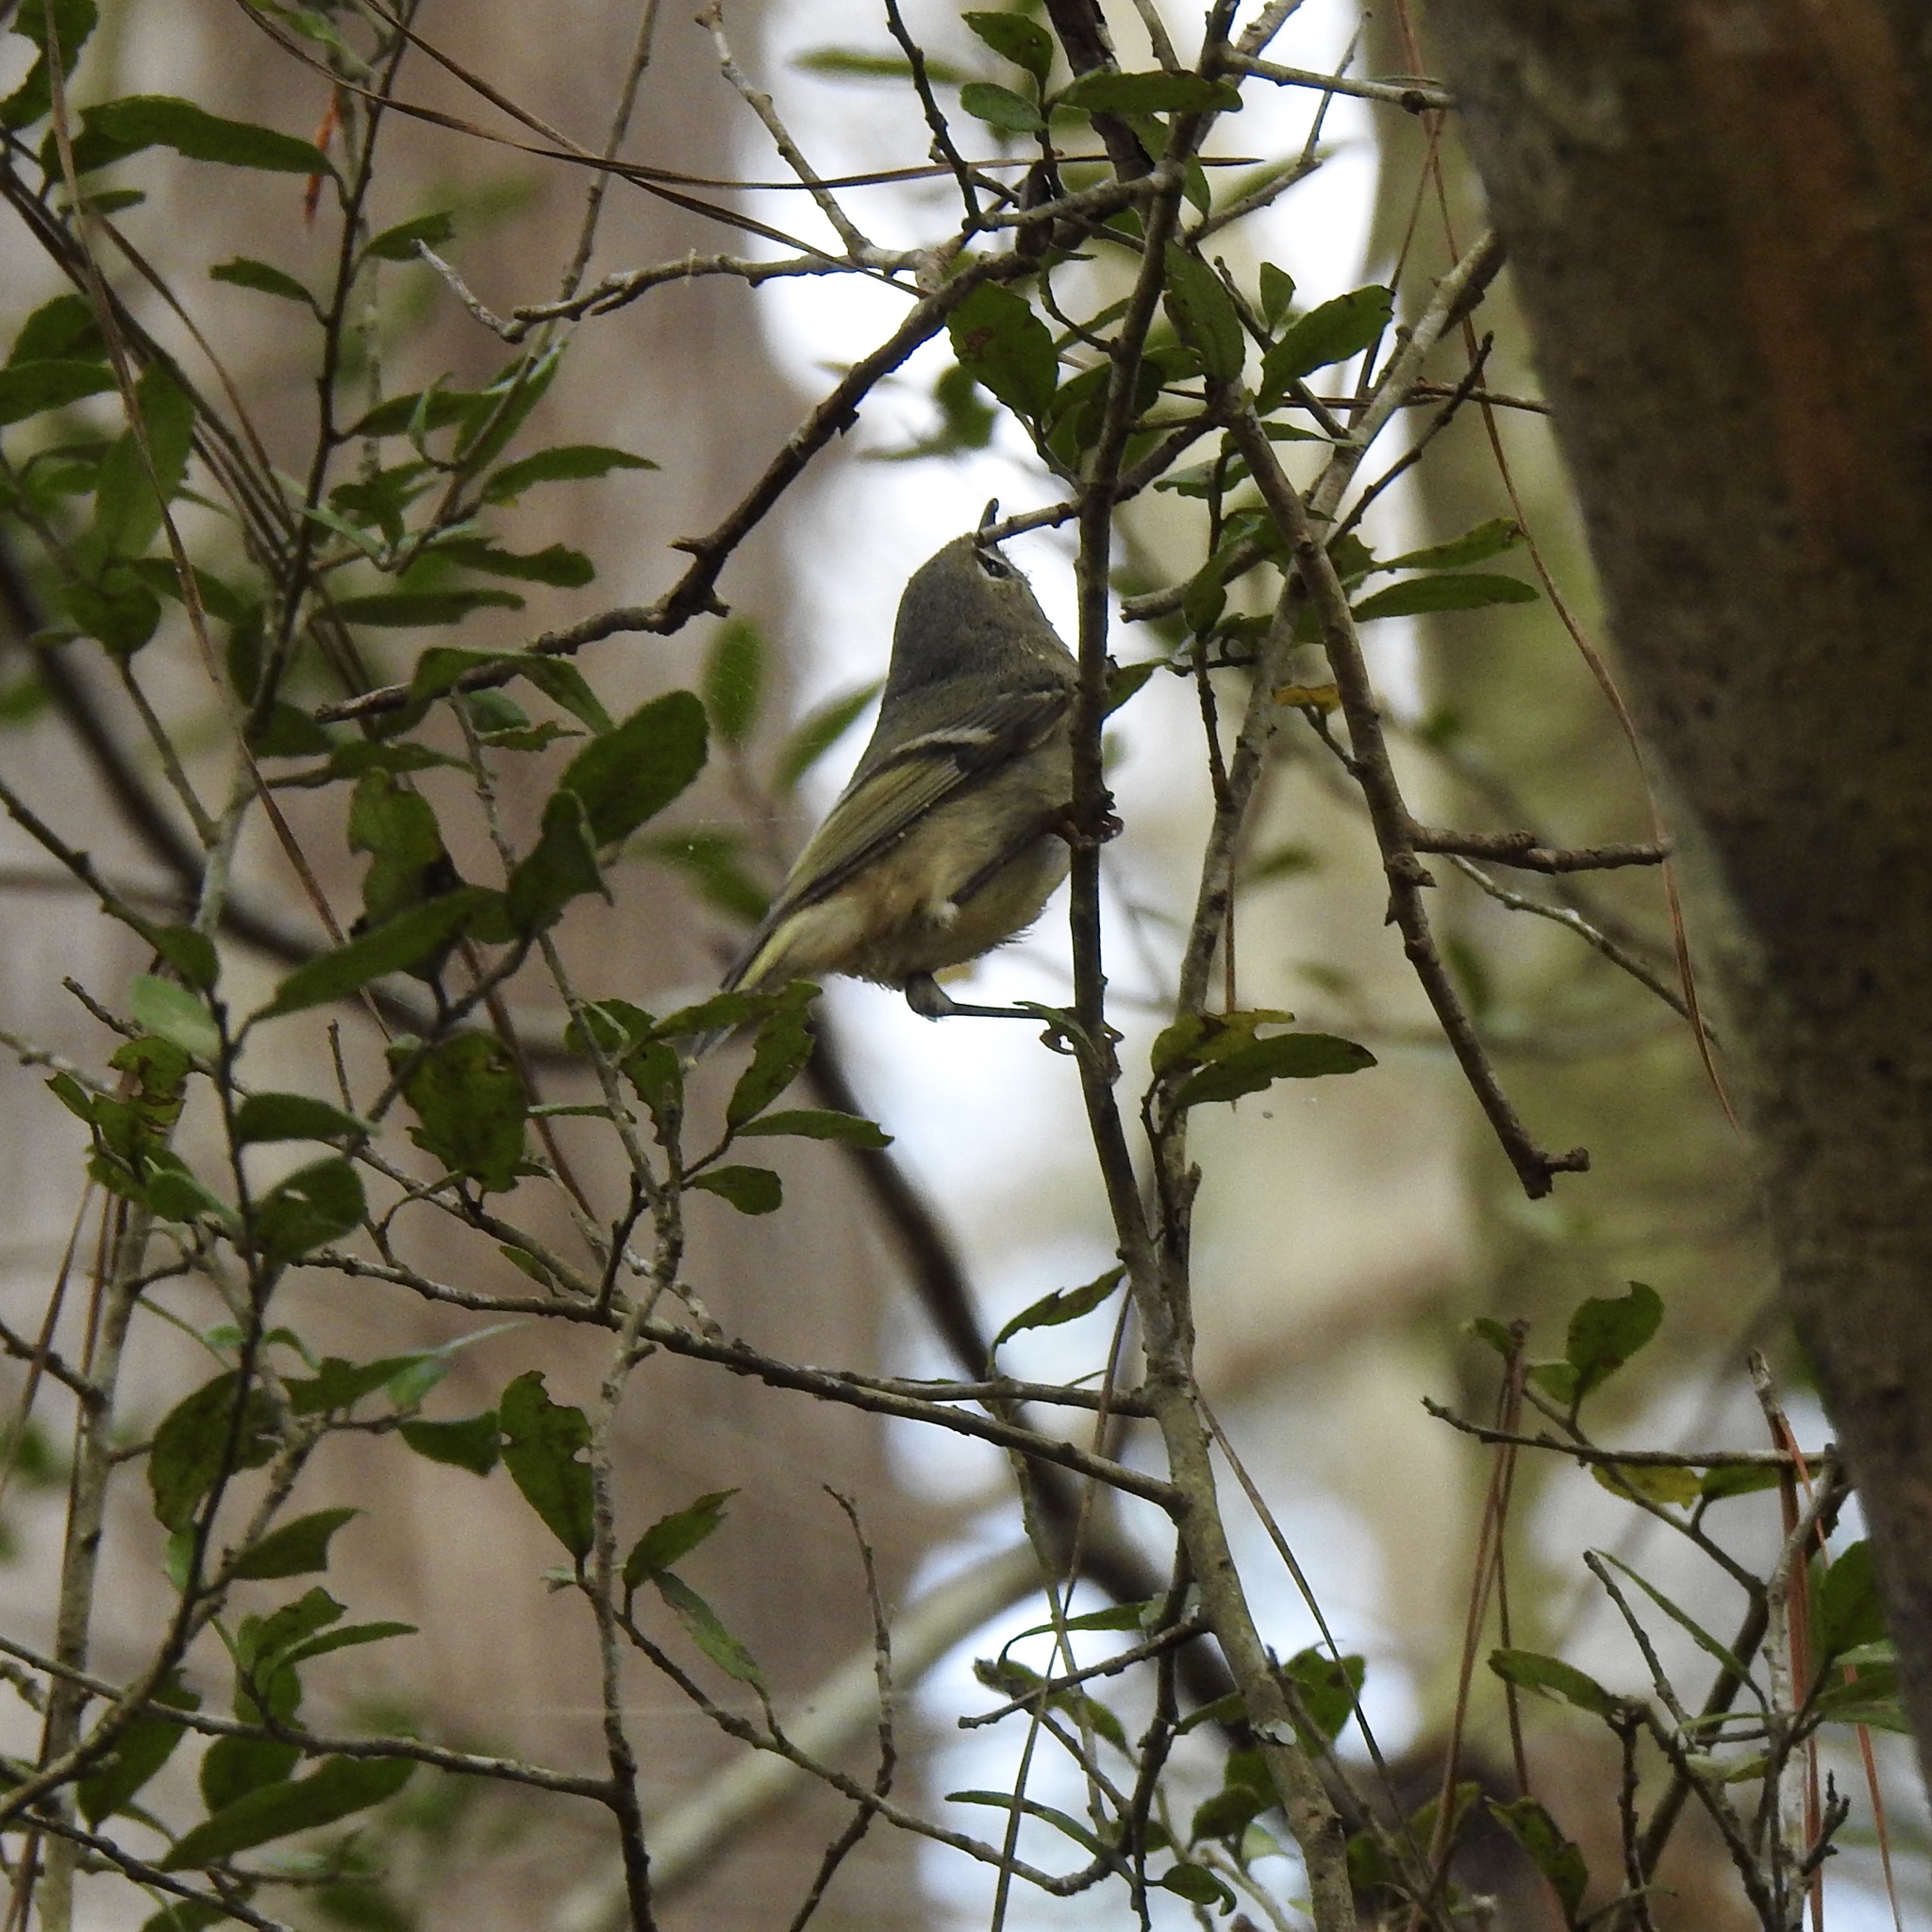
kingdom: Animalia
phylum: Chordata
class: Aves
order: Passeriformes
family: Regulidae
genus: Regulus
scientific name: Regulus calendula
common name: Ruby-crowned kinglet
